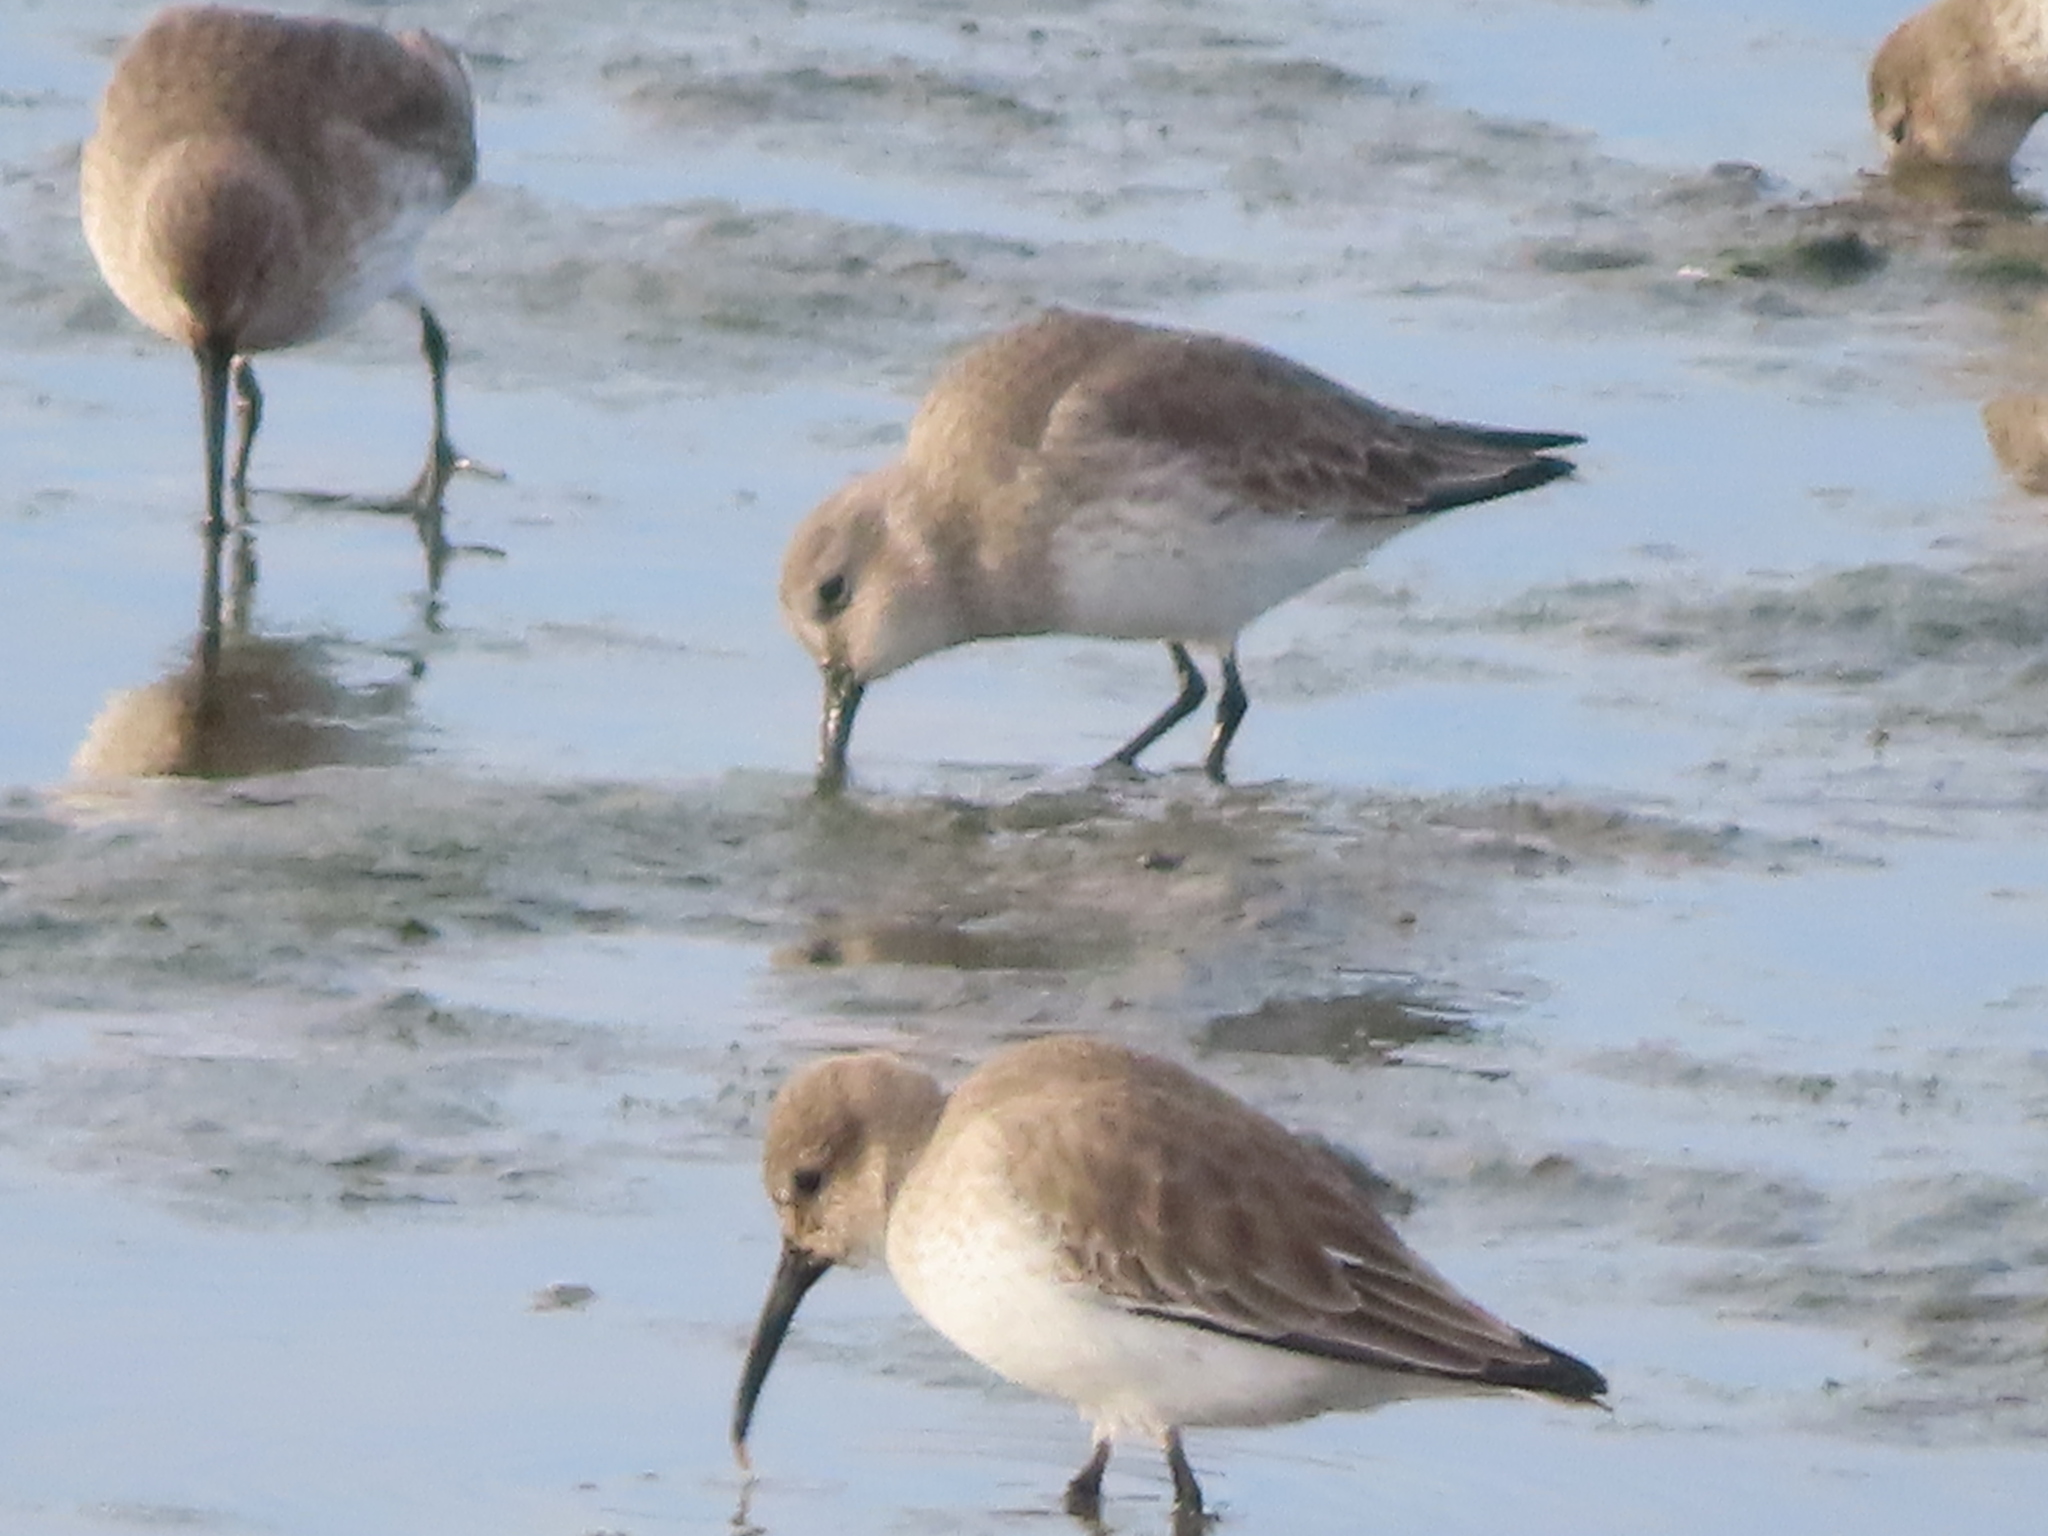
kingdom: Animalia
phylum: Chordata
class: Aves
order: Charadriiformes
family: Scolopacidae
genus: Calidris
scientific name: Calidris alpina
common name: Dunlin
